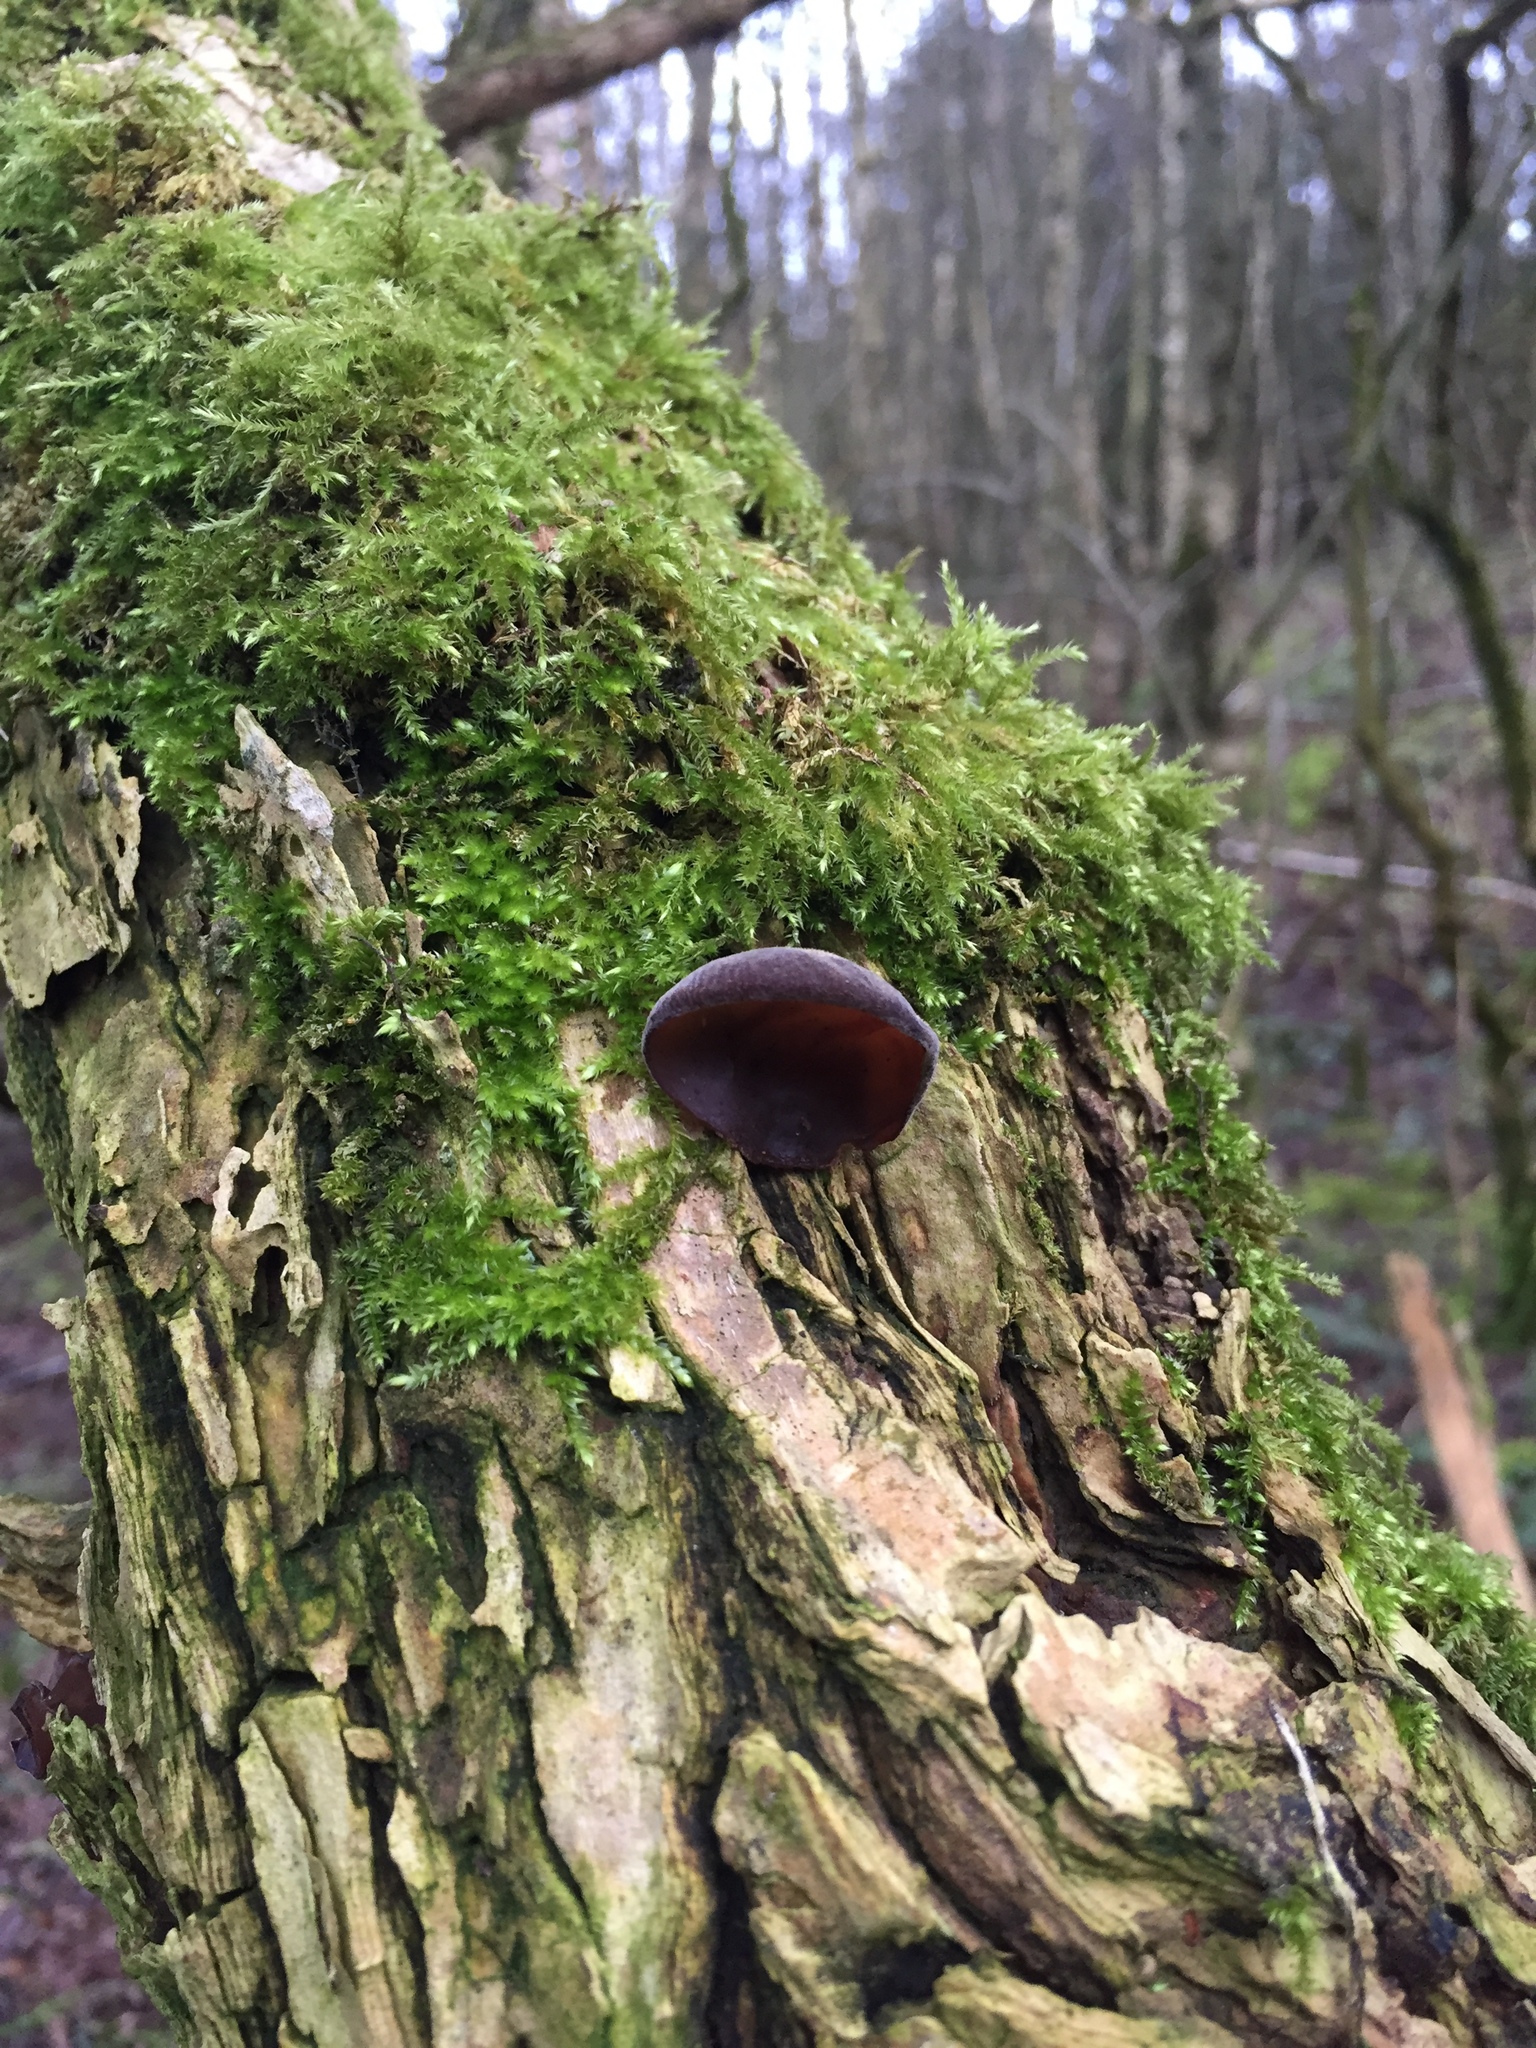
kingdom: Fungi
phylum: Basidiomycota
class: Agaricomycetes
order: Auriculariales
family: Auriculariaceae
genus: Auricularia
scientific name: Auricularia auricula-judae
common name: Jelly ear
